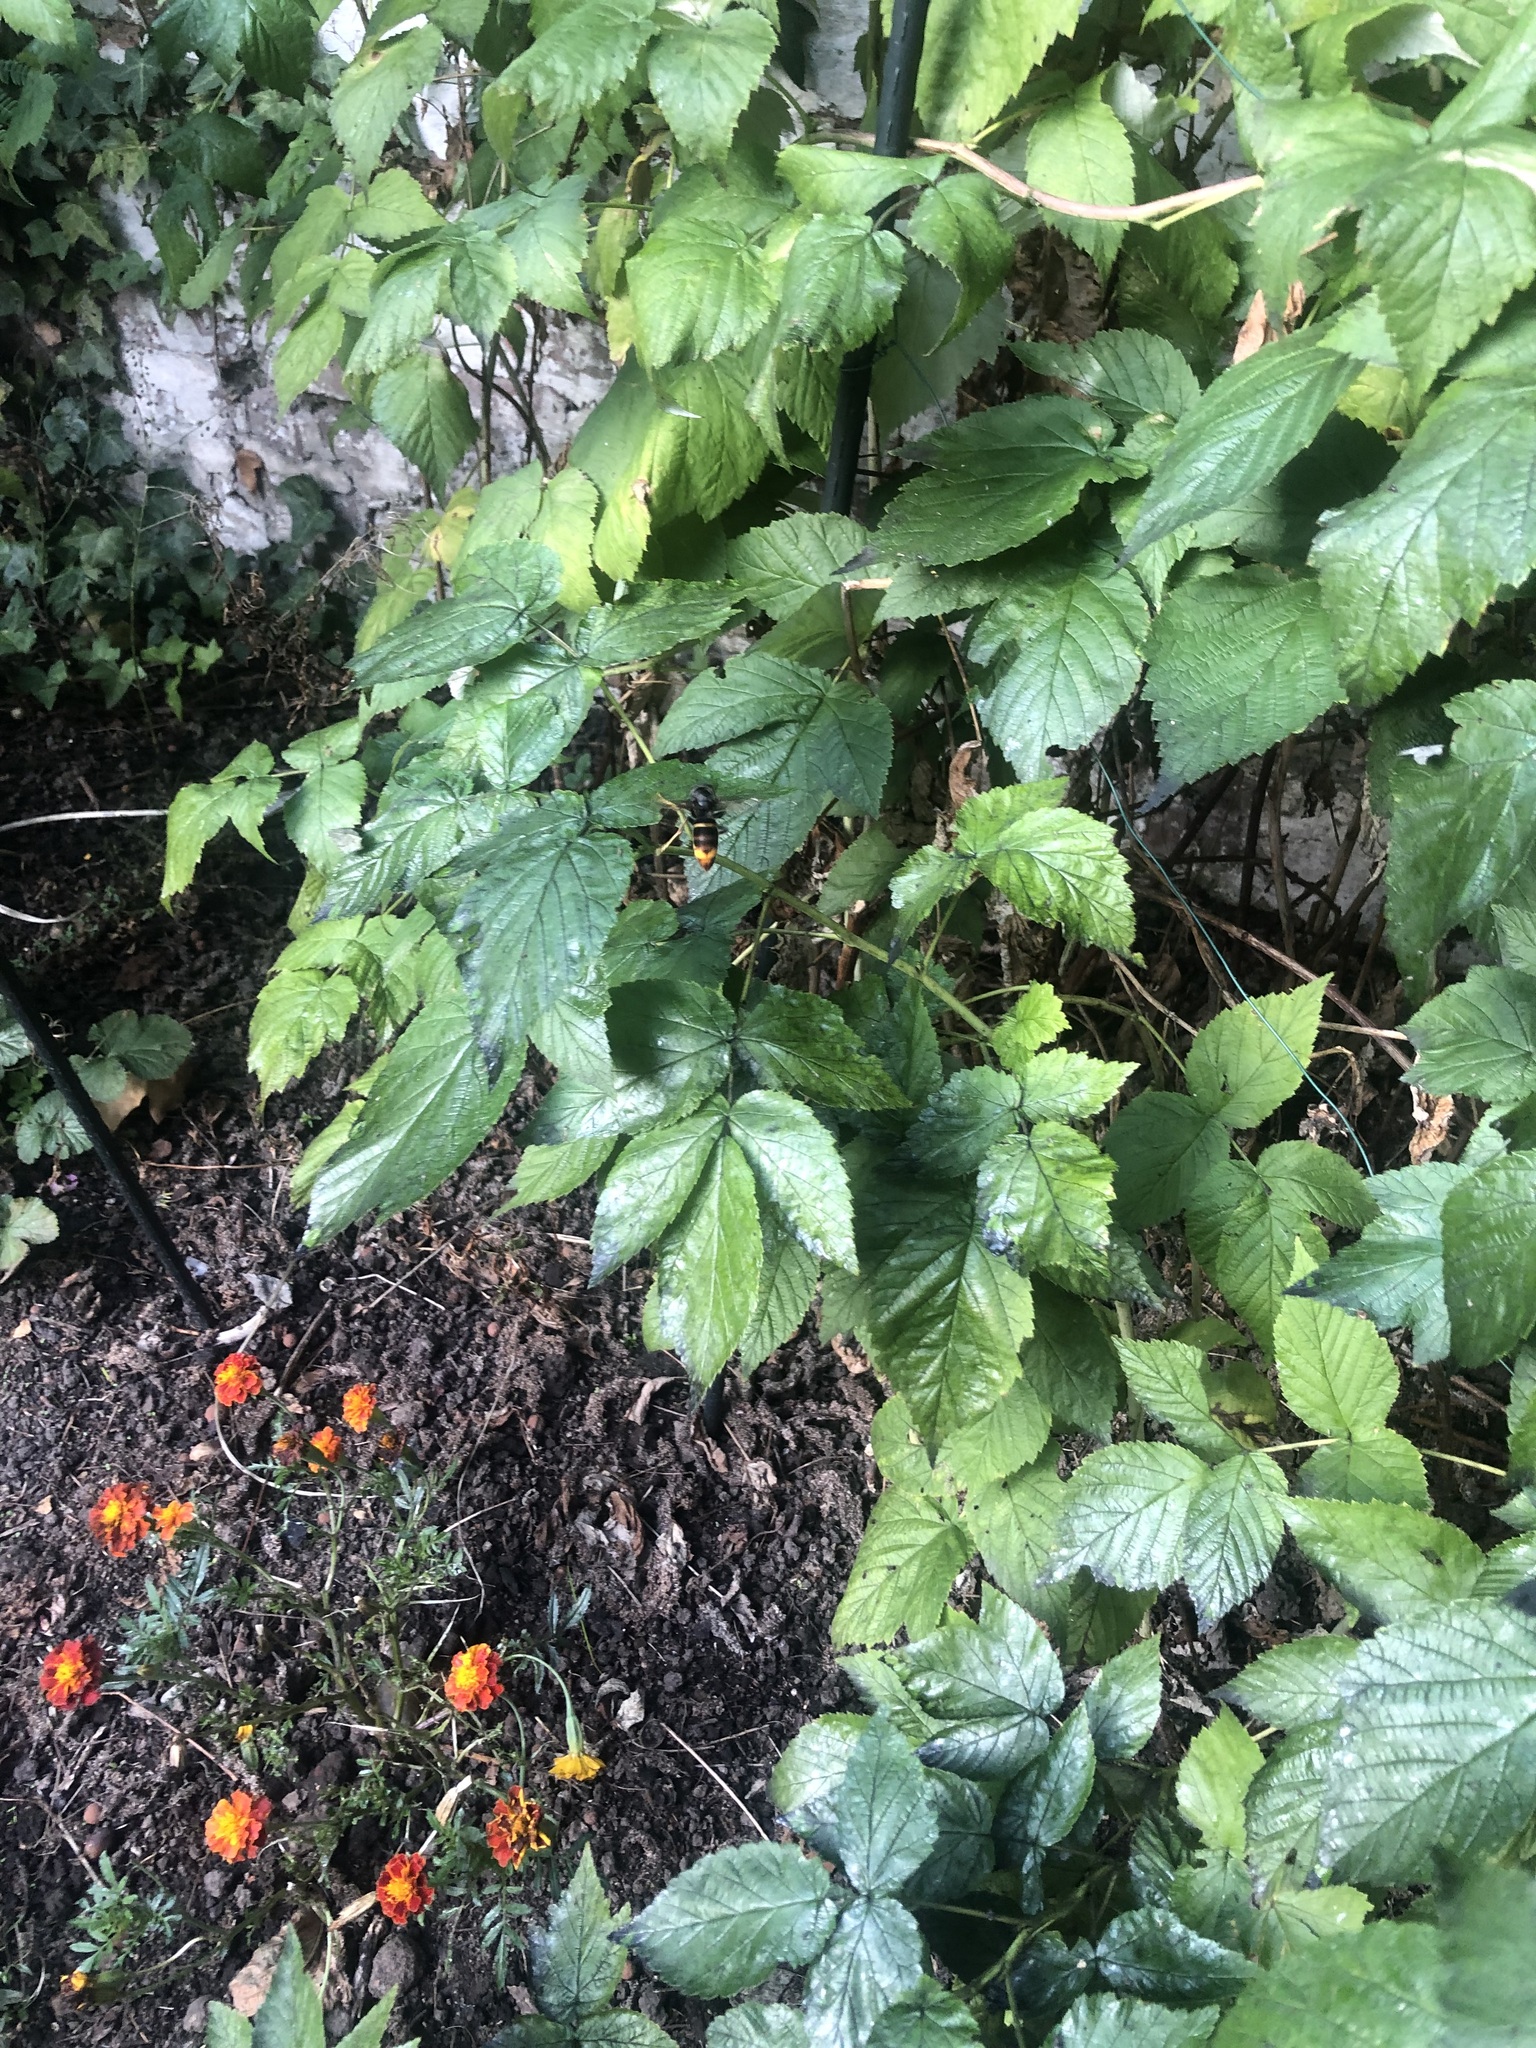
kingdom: Animalia
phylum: Arthropoda
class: Insecta
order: Hymenoptera
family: Vespidae
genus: Vespa
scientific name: Vespa velutina
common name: Asian hornet
